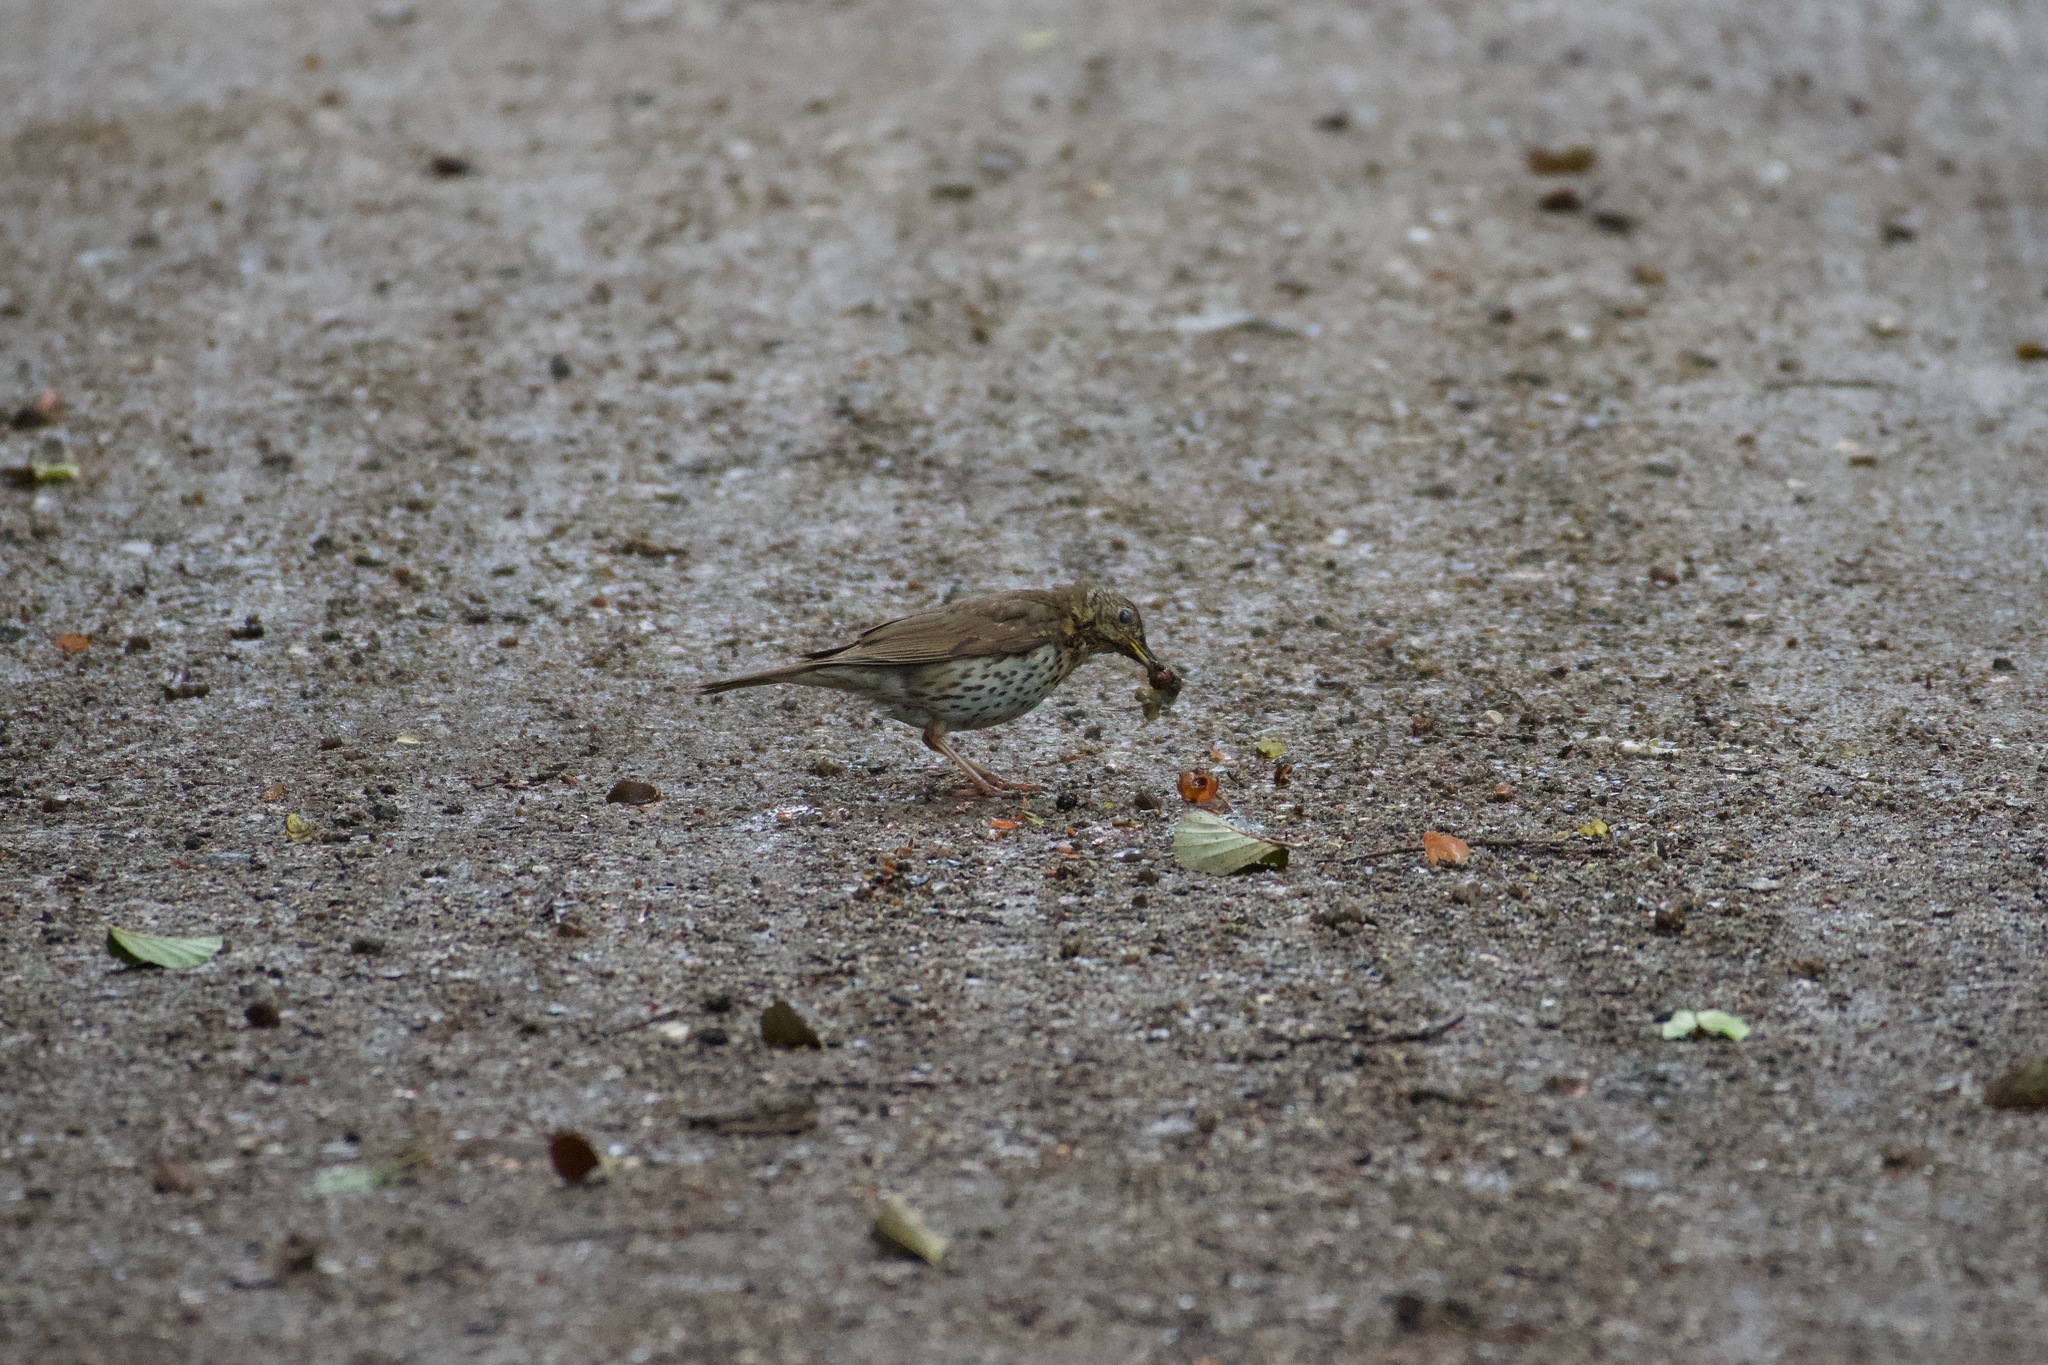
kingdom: Animalia
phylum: Chordata
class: Aves
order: Passeriformes
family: Turdidae
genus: Turdus
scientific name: Turdus philomelos
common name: Song thrush
